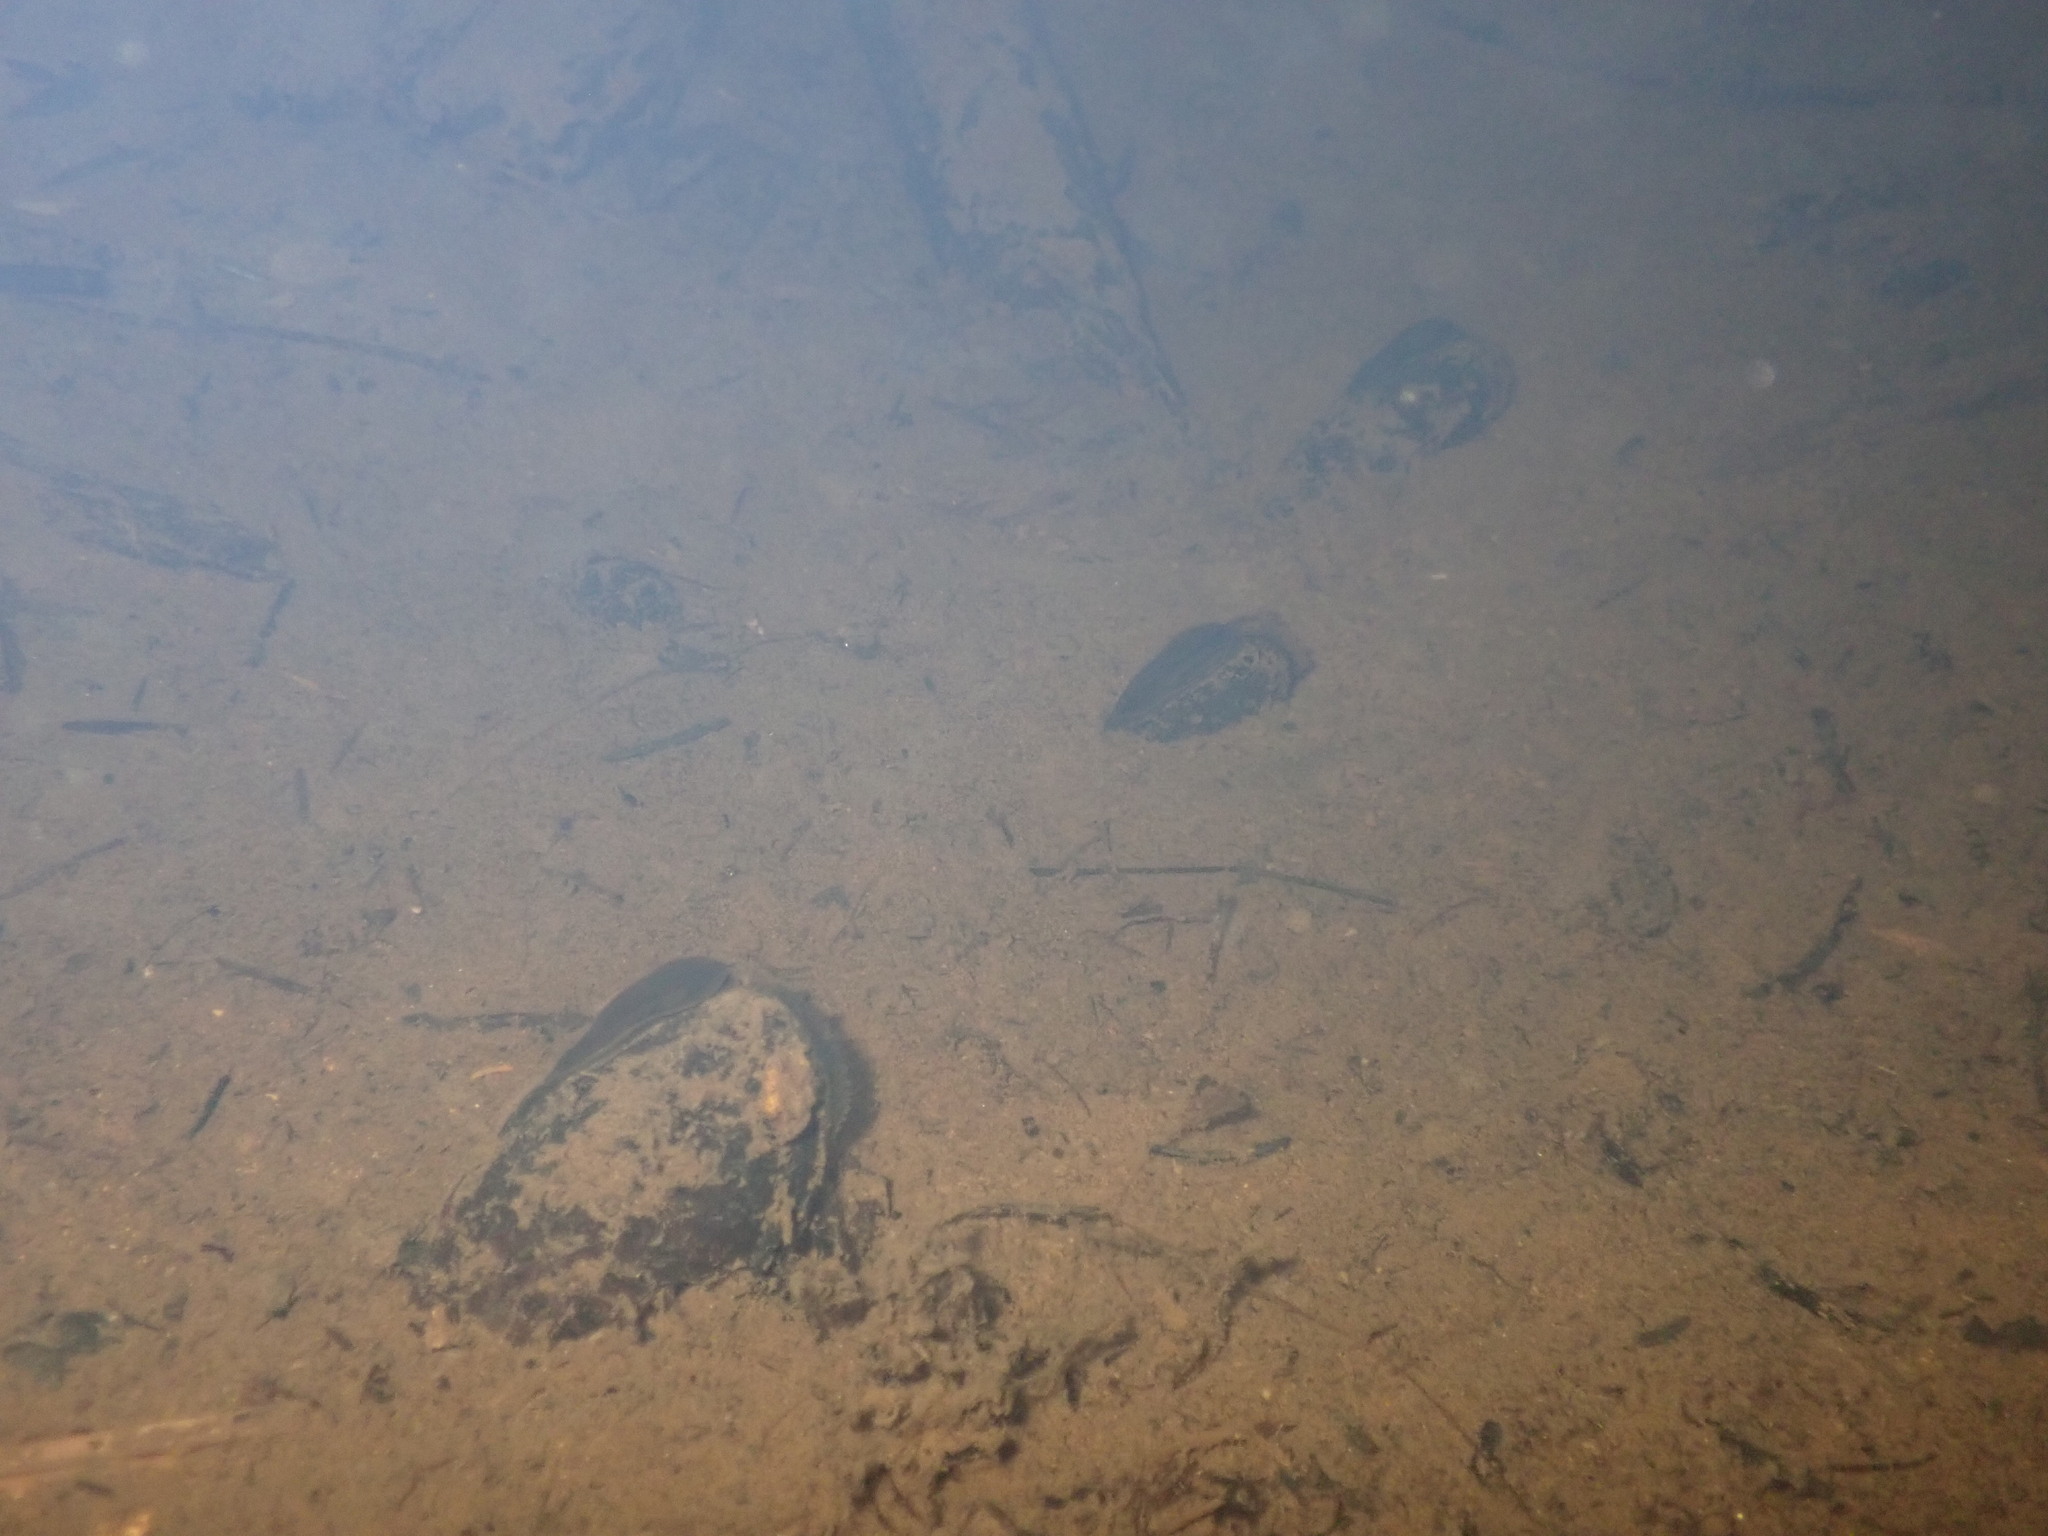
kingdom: Animalia
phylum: Mollusca
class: Bivalvia
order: Unionida
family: Margaritiferidae
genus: Margaritifera
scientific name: Margaritifera falcata
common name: Western pearlshell
